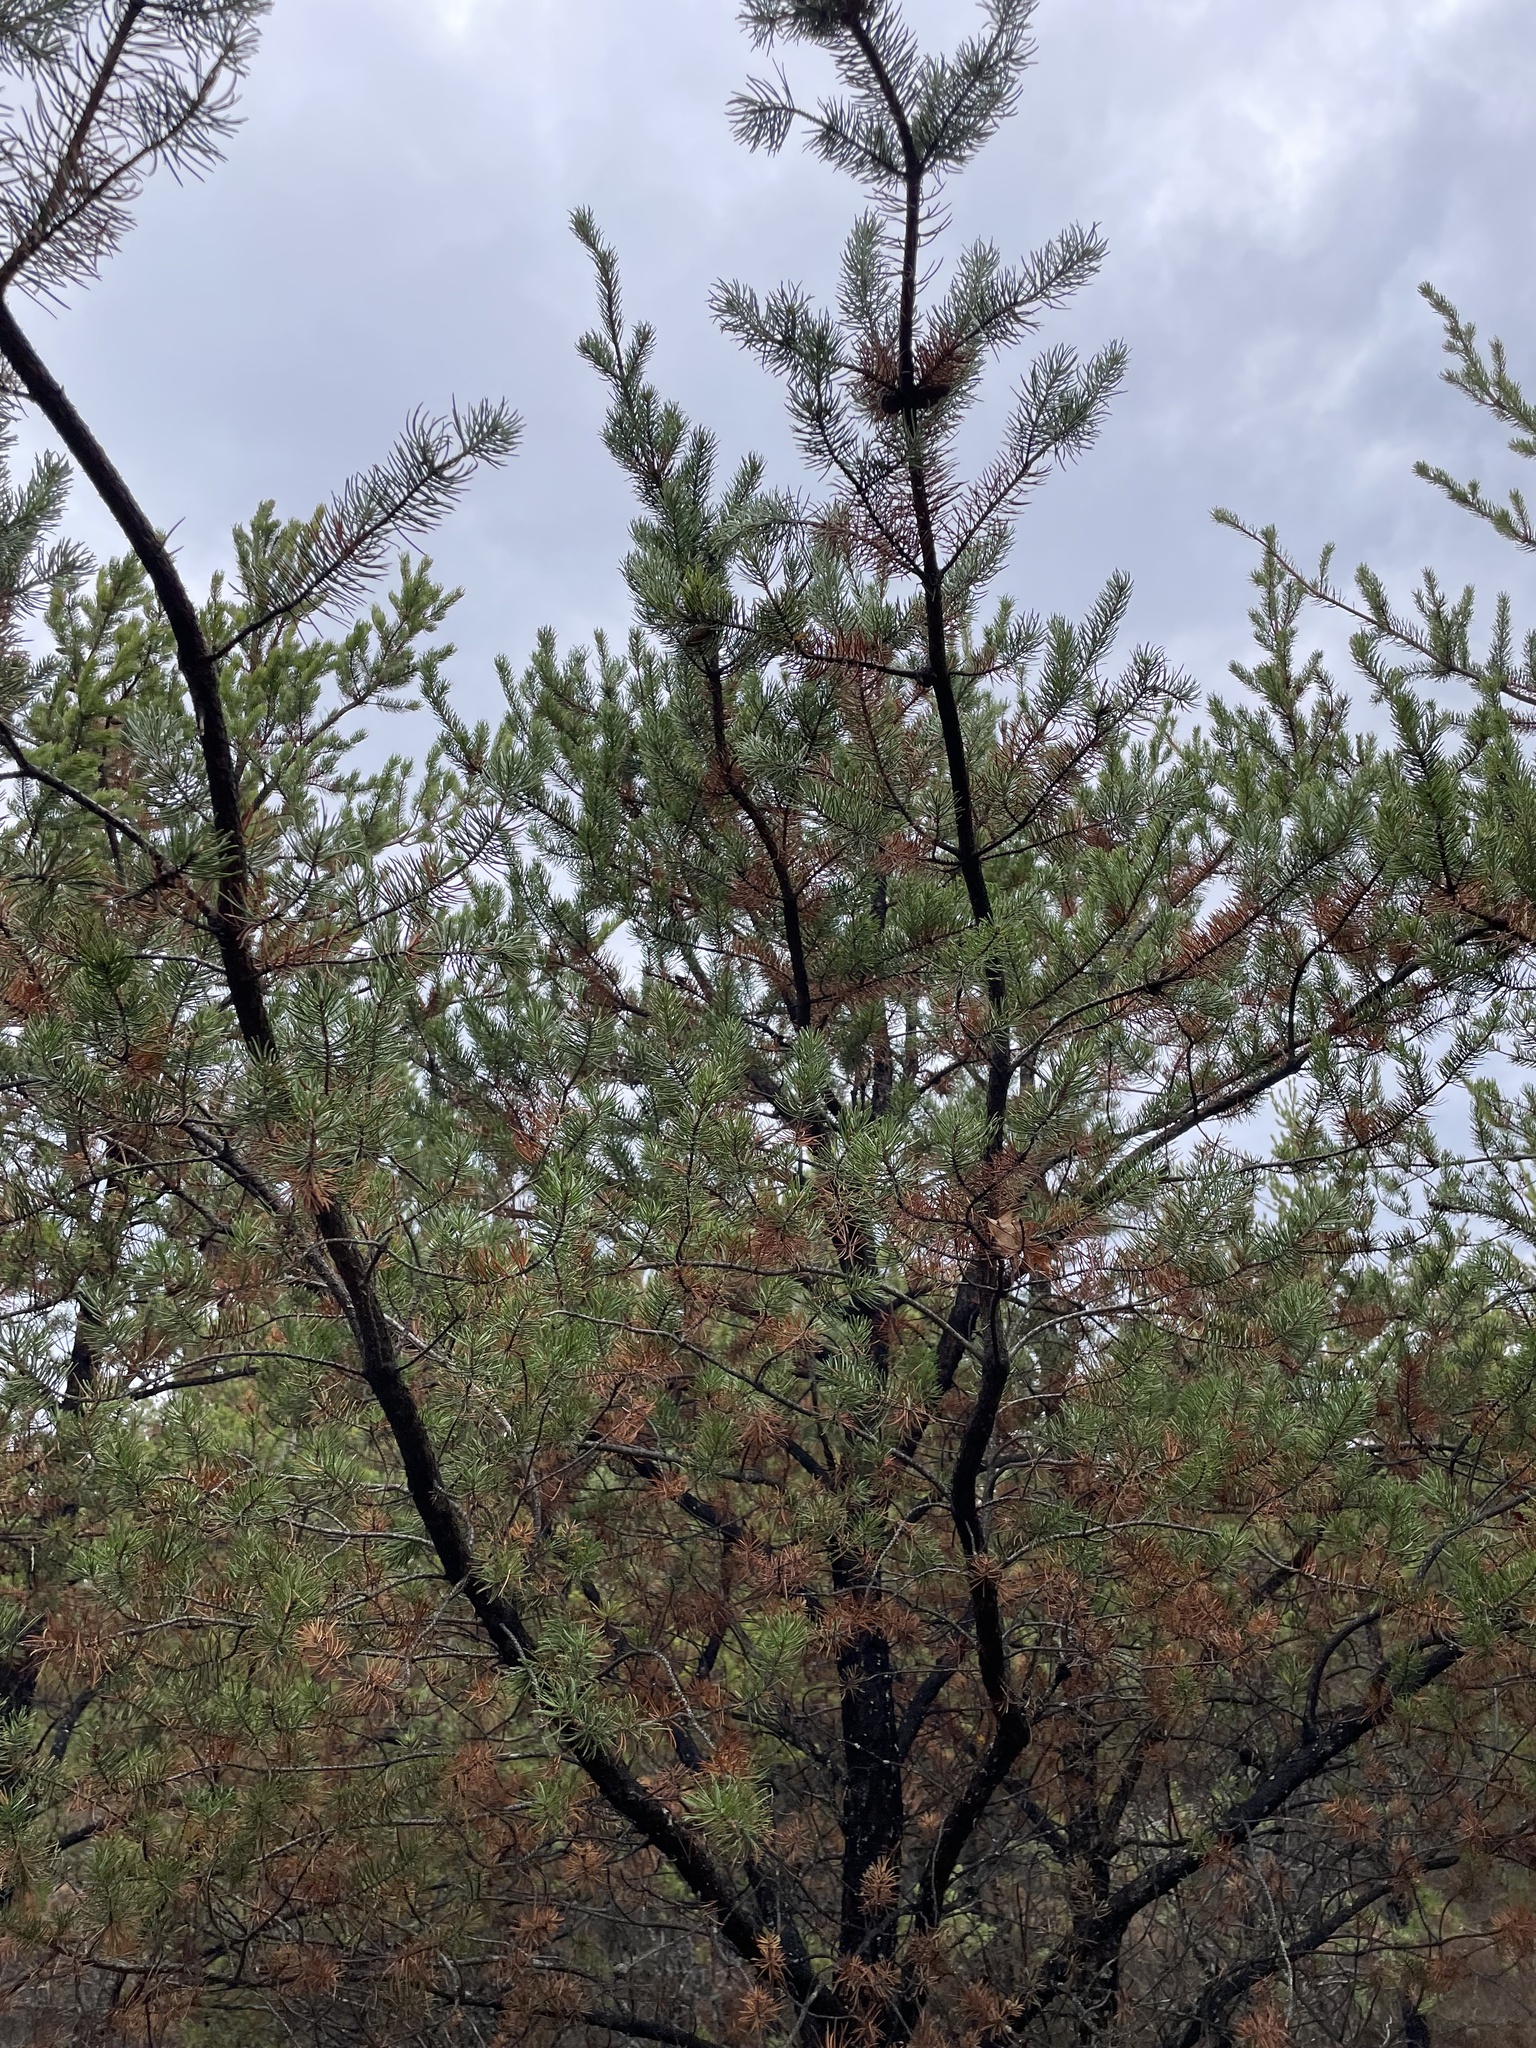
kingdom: Plantae
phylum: Tracheophyta
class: Pinopsida
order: Pinales
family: Pinaceae
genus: Pinus
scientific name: Pinus banksiana
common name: Jack pine
